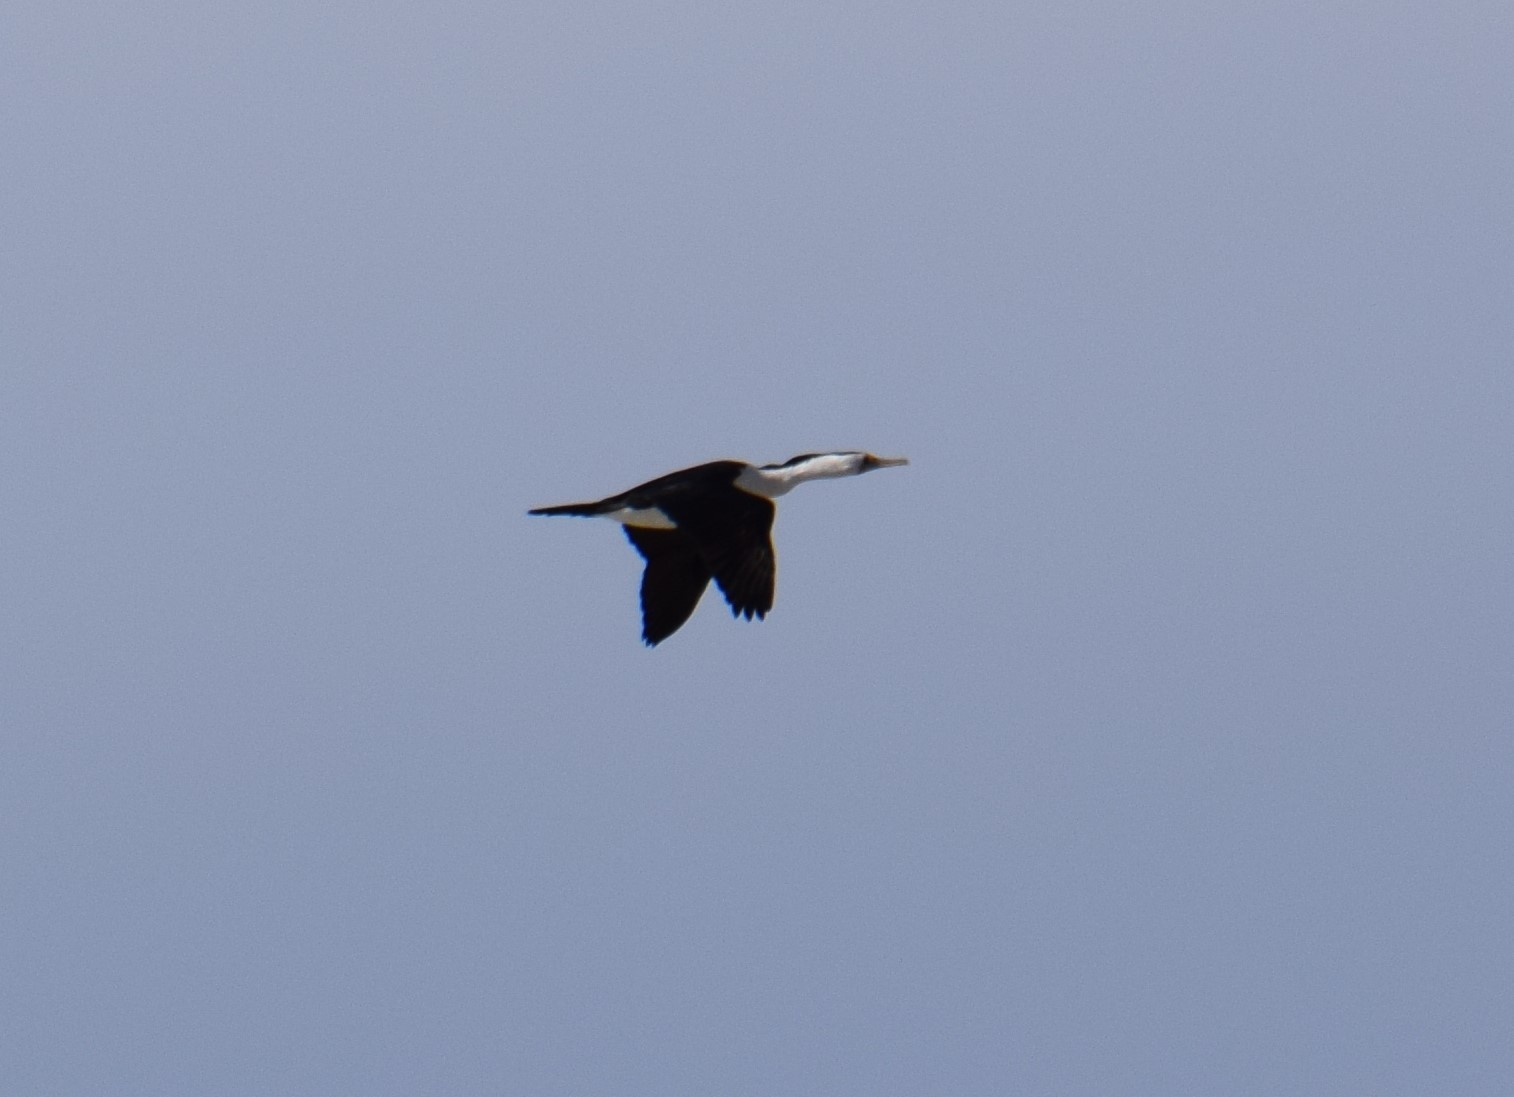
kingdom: Animalia
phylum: Chordata
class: Aves
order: Suliformes
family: Phalacrocoracidae
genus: Phalacrocorax
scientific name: Phalacrocorax varius
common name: Pied cormorant
